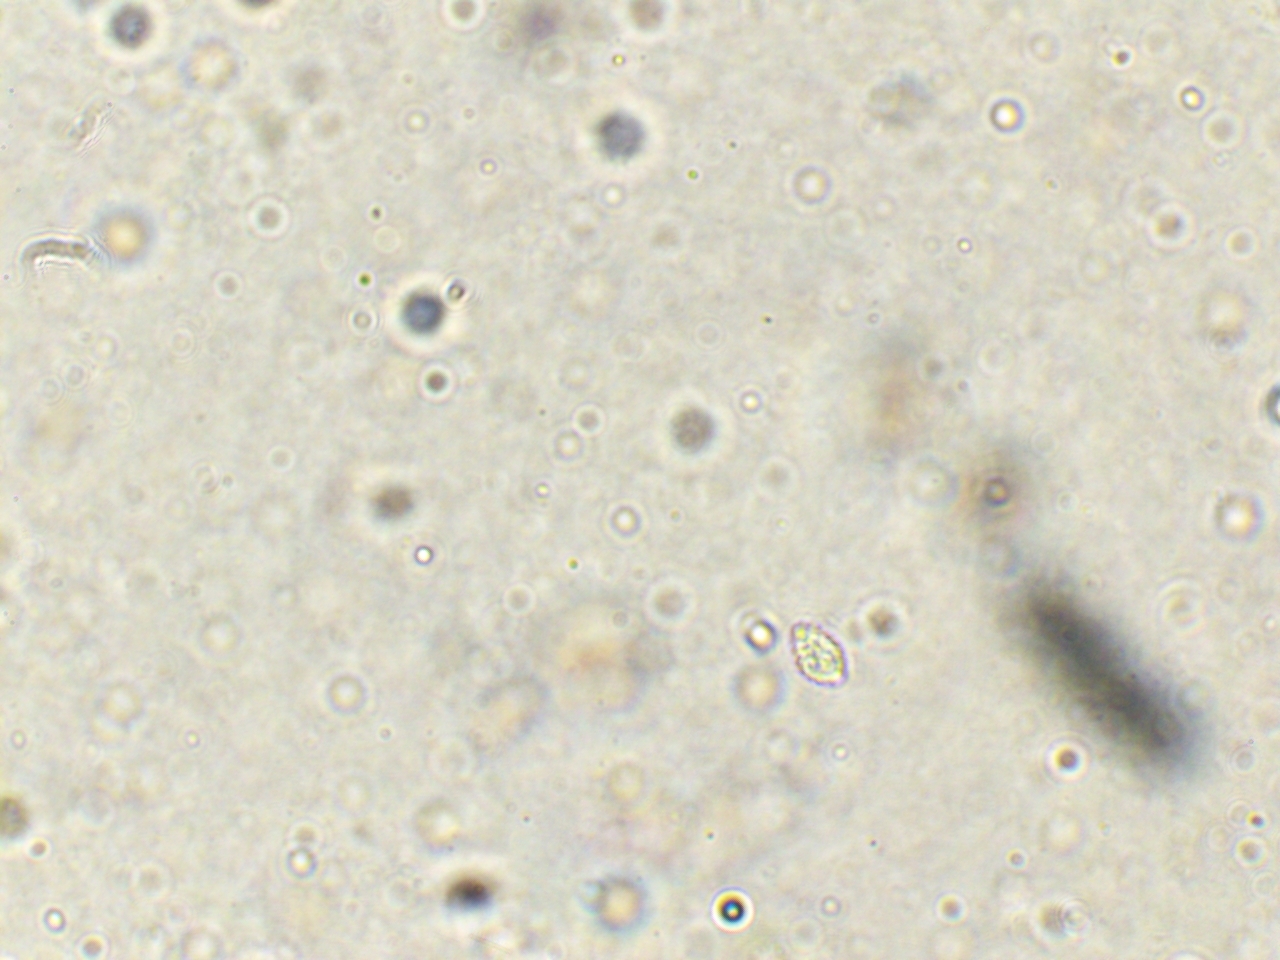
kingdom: Fungi
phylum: Basidiomycota
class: Agaricomycetes
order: Agaricales
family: Tricholomataceae
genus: Collybia
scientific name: Collybia
